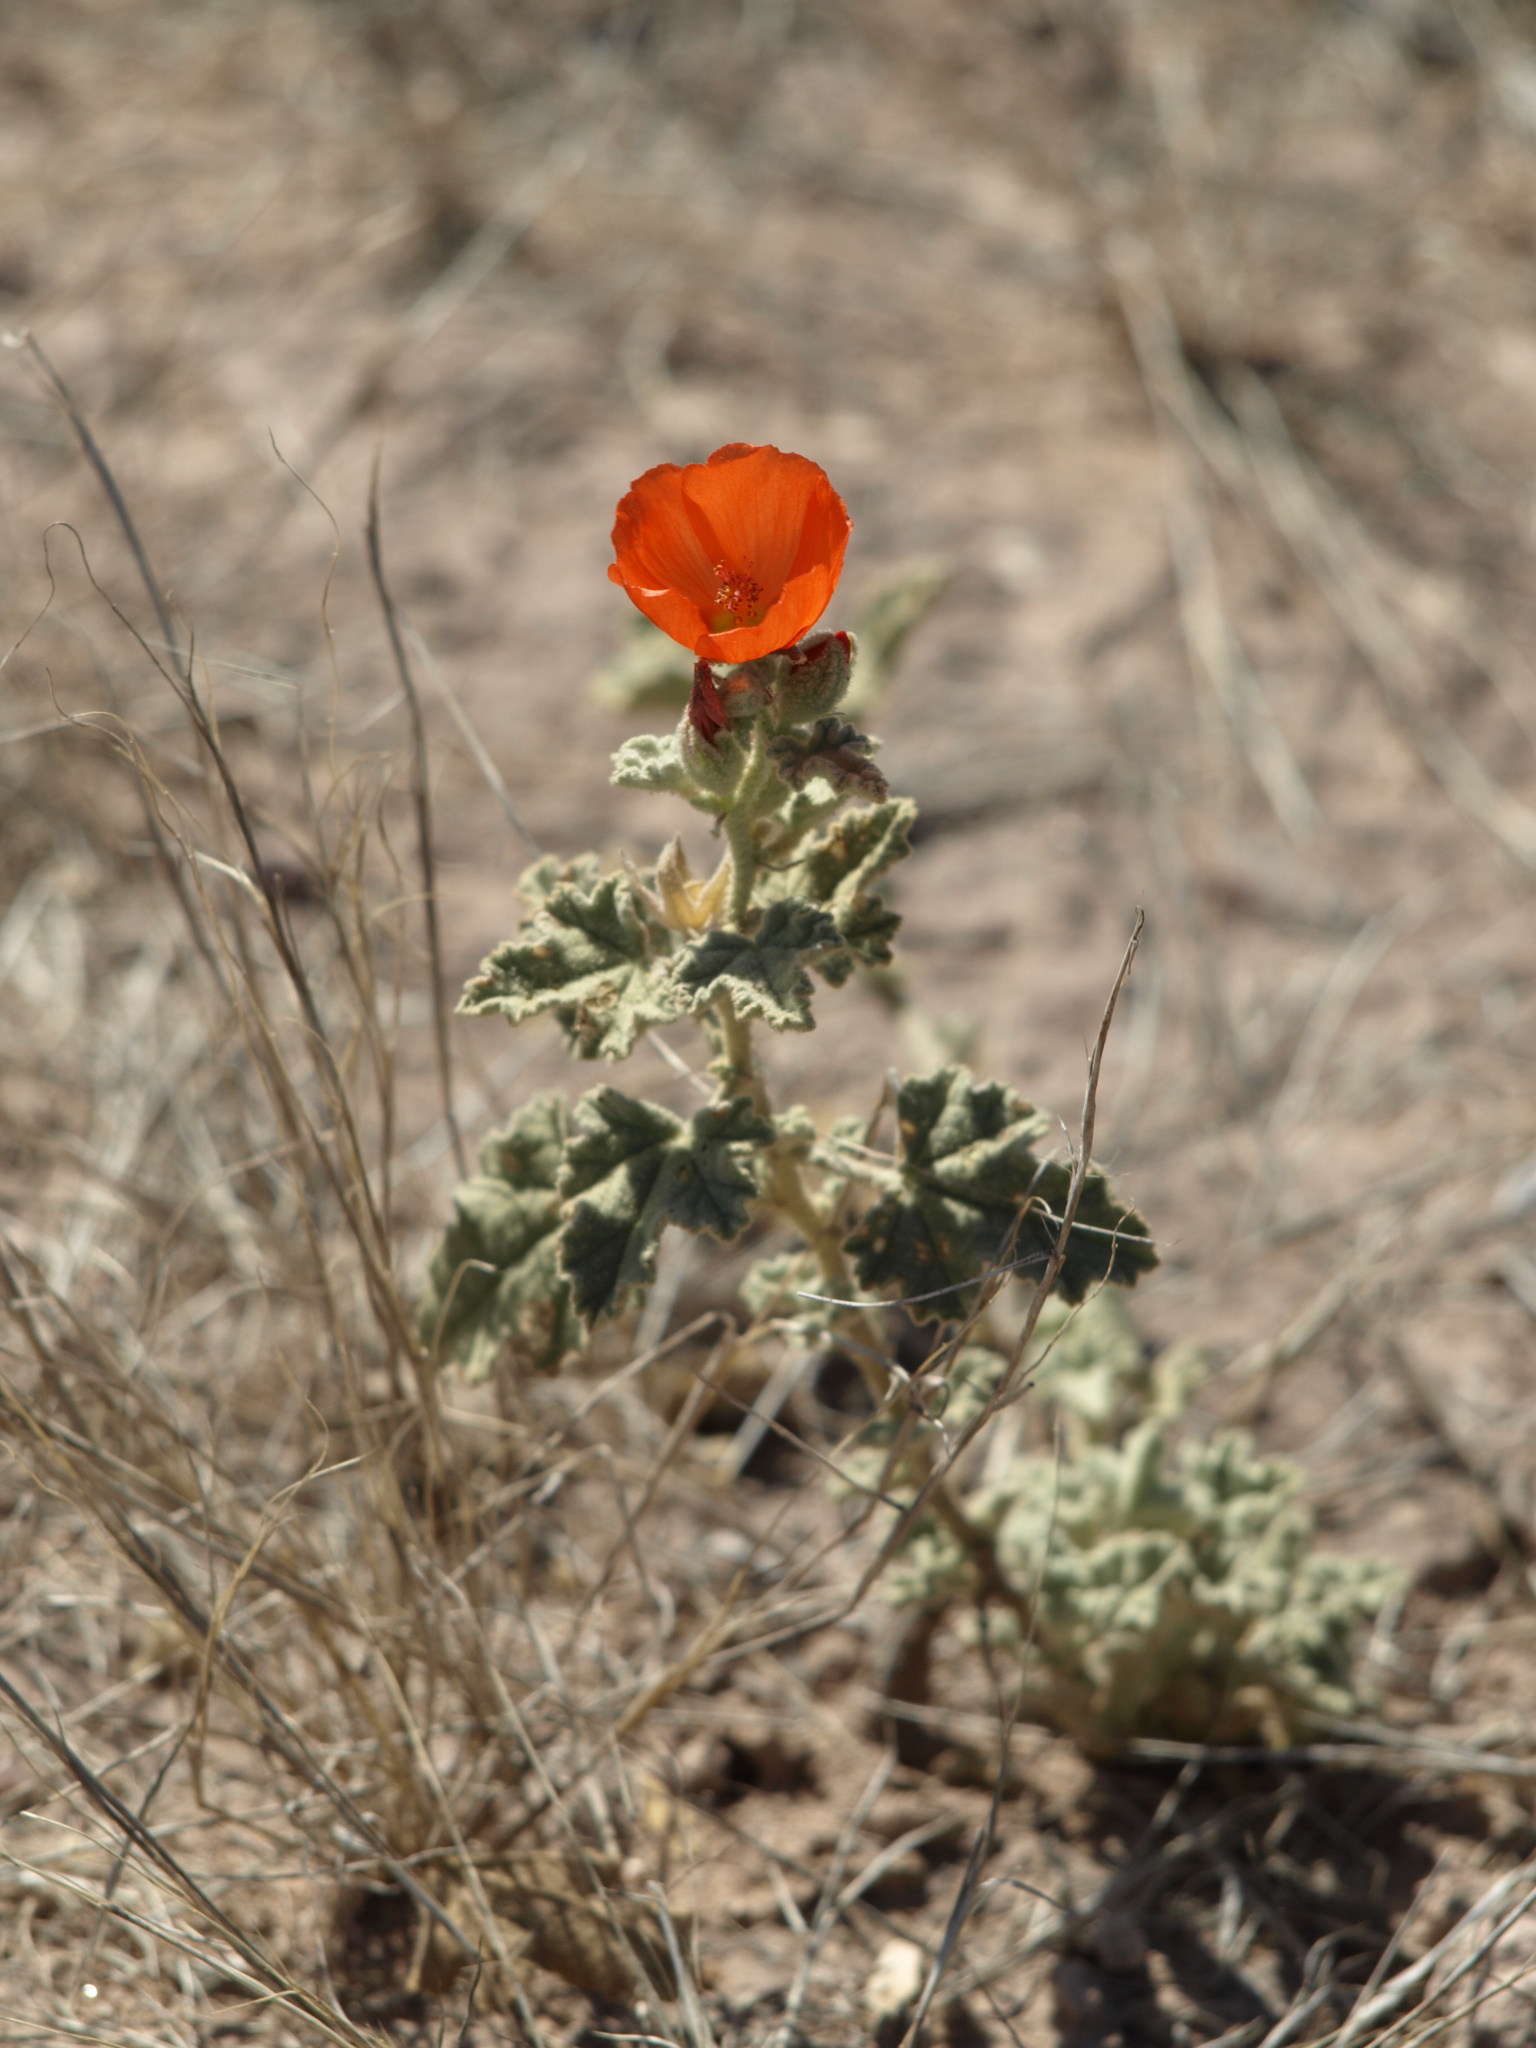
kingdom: Plantae
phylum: Tracheophyta
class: Magnoliopsida
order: Malvales
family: Malvaceae
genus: Sphaeralcea
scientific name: Sphaeralcea coulteri
